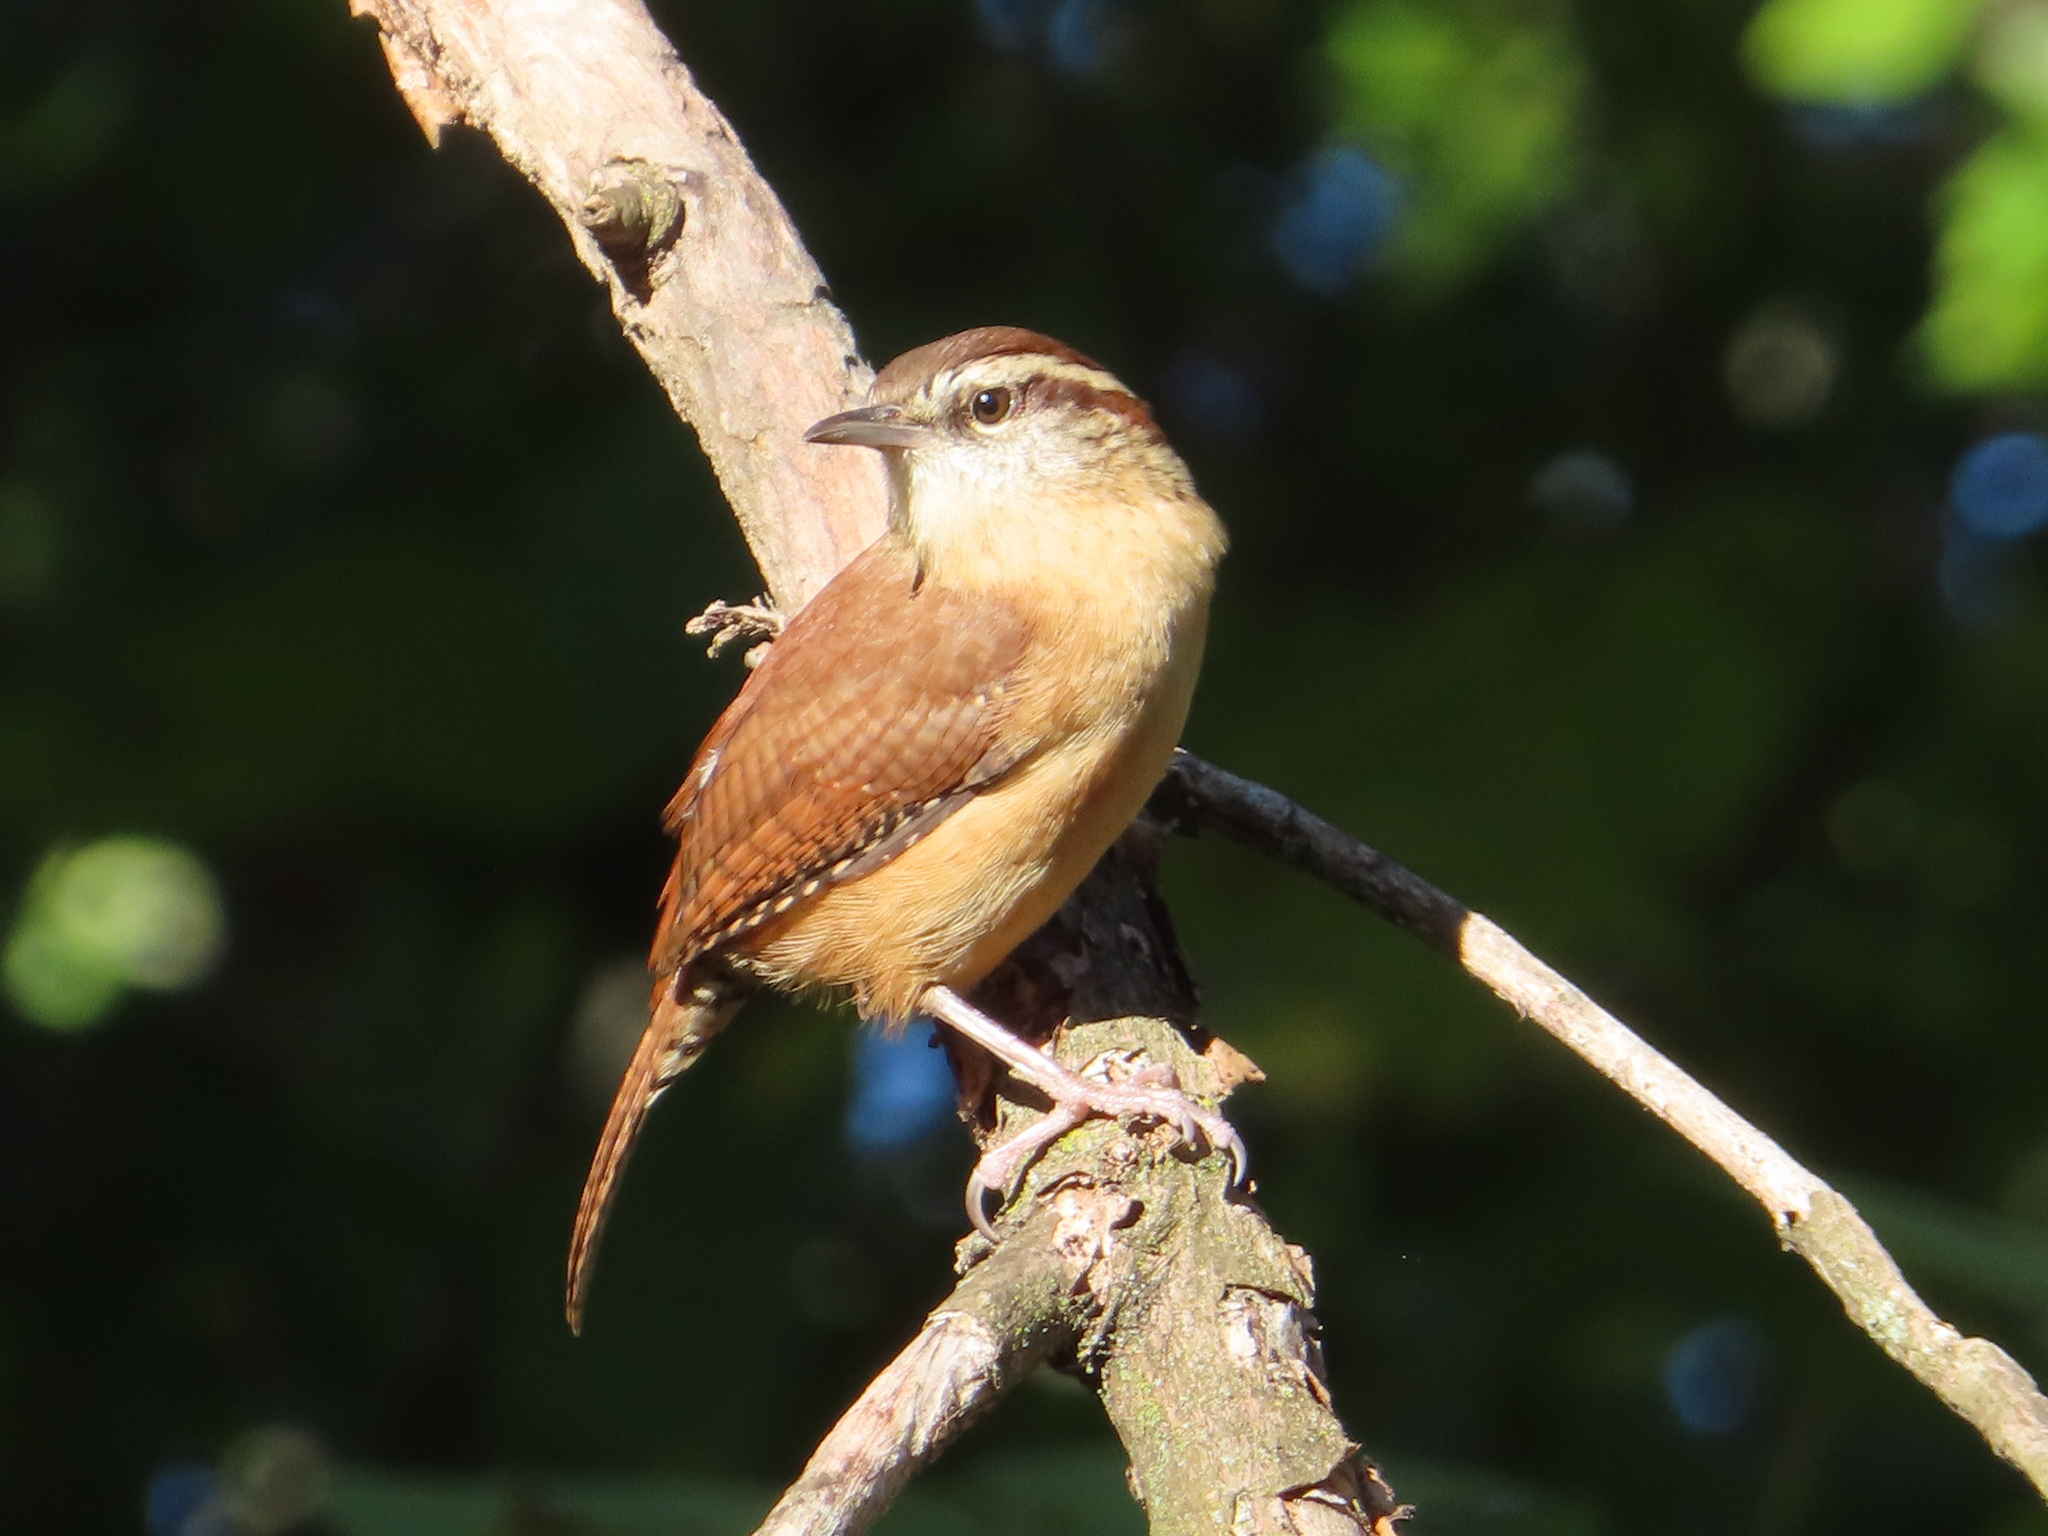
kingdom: Animalia
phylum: Chordata
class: Aves
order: Passeriformes
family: Troglodytidae
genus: Thryothorus
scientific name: Thryothorus ludovicianus
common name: Carolina wren
